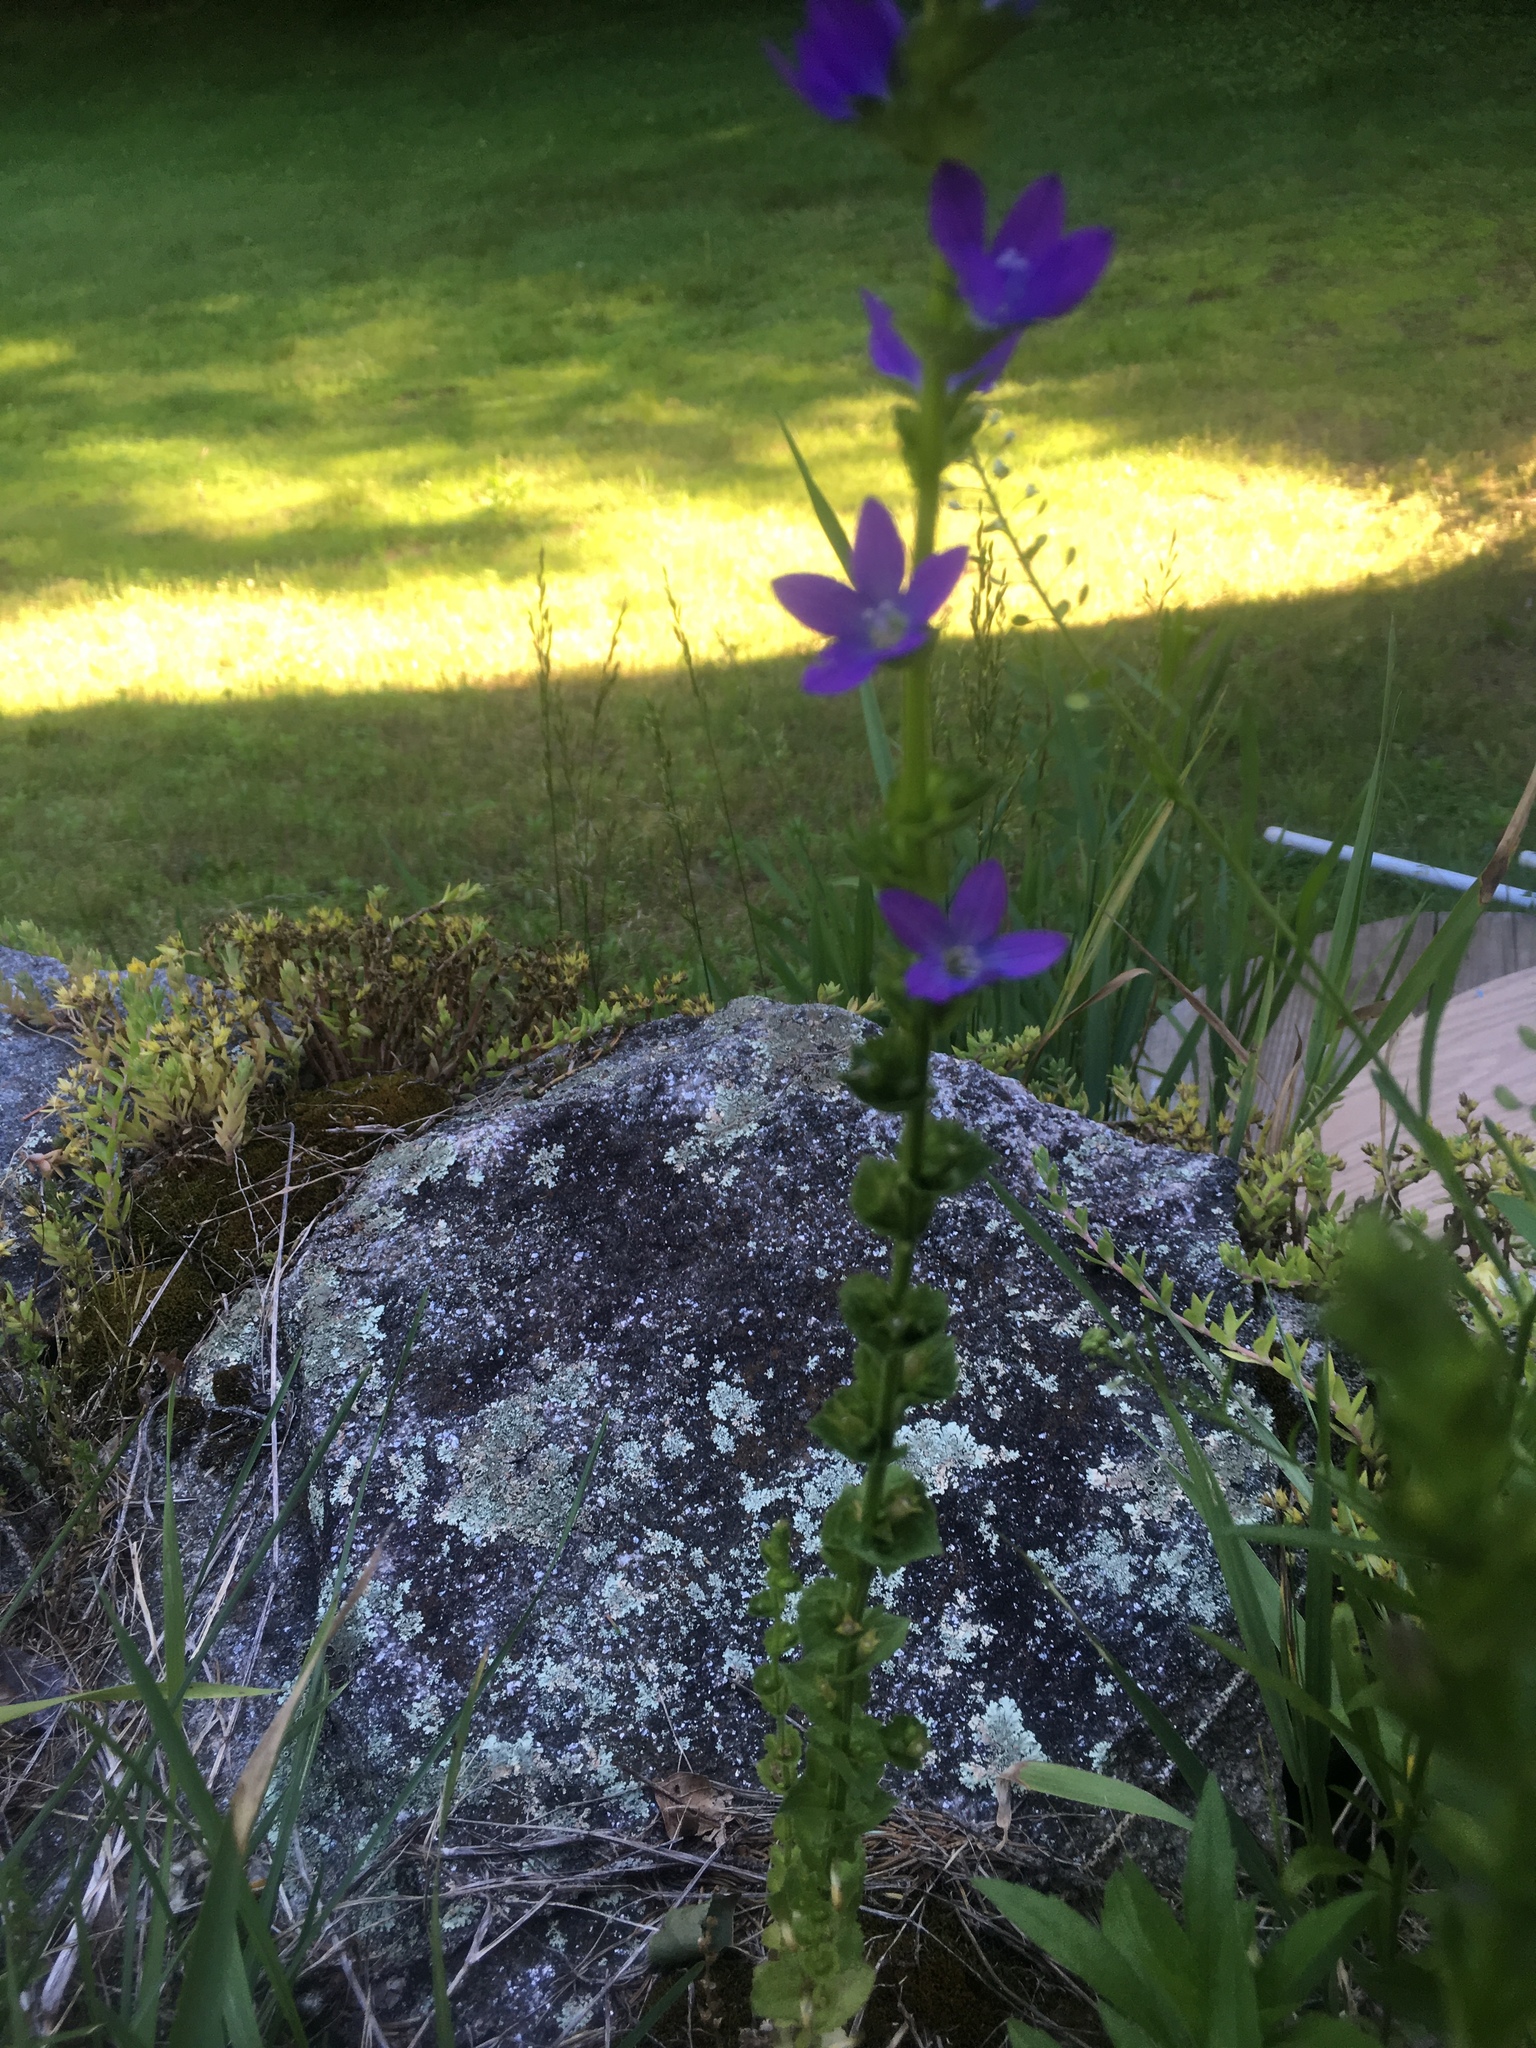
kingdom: Plantae
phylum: Tracheophyta
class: Magnoliopsida
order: Asterales
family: Campanulaceae
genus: Triodanis
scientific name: Triodanis perfoliata
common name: Clasping venus' looking-glass
